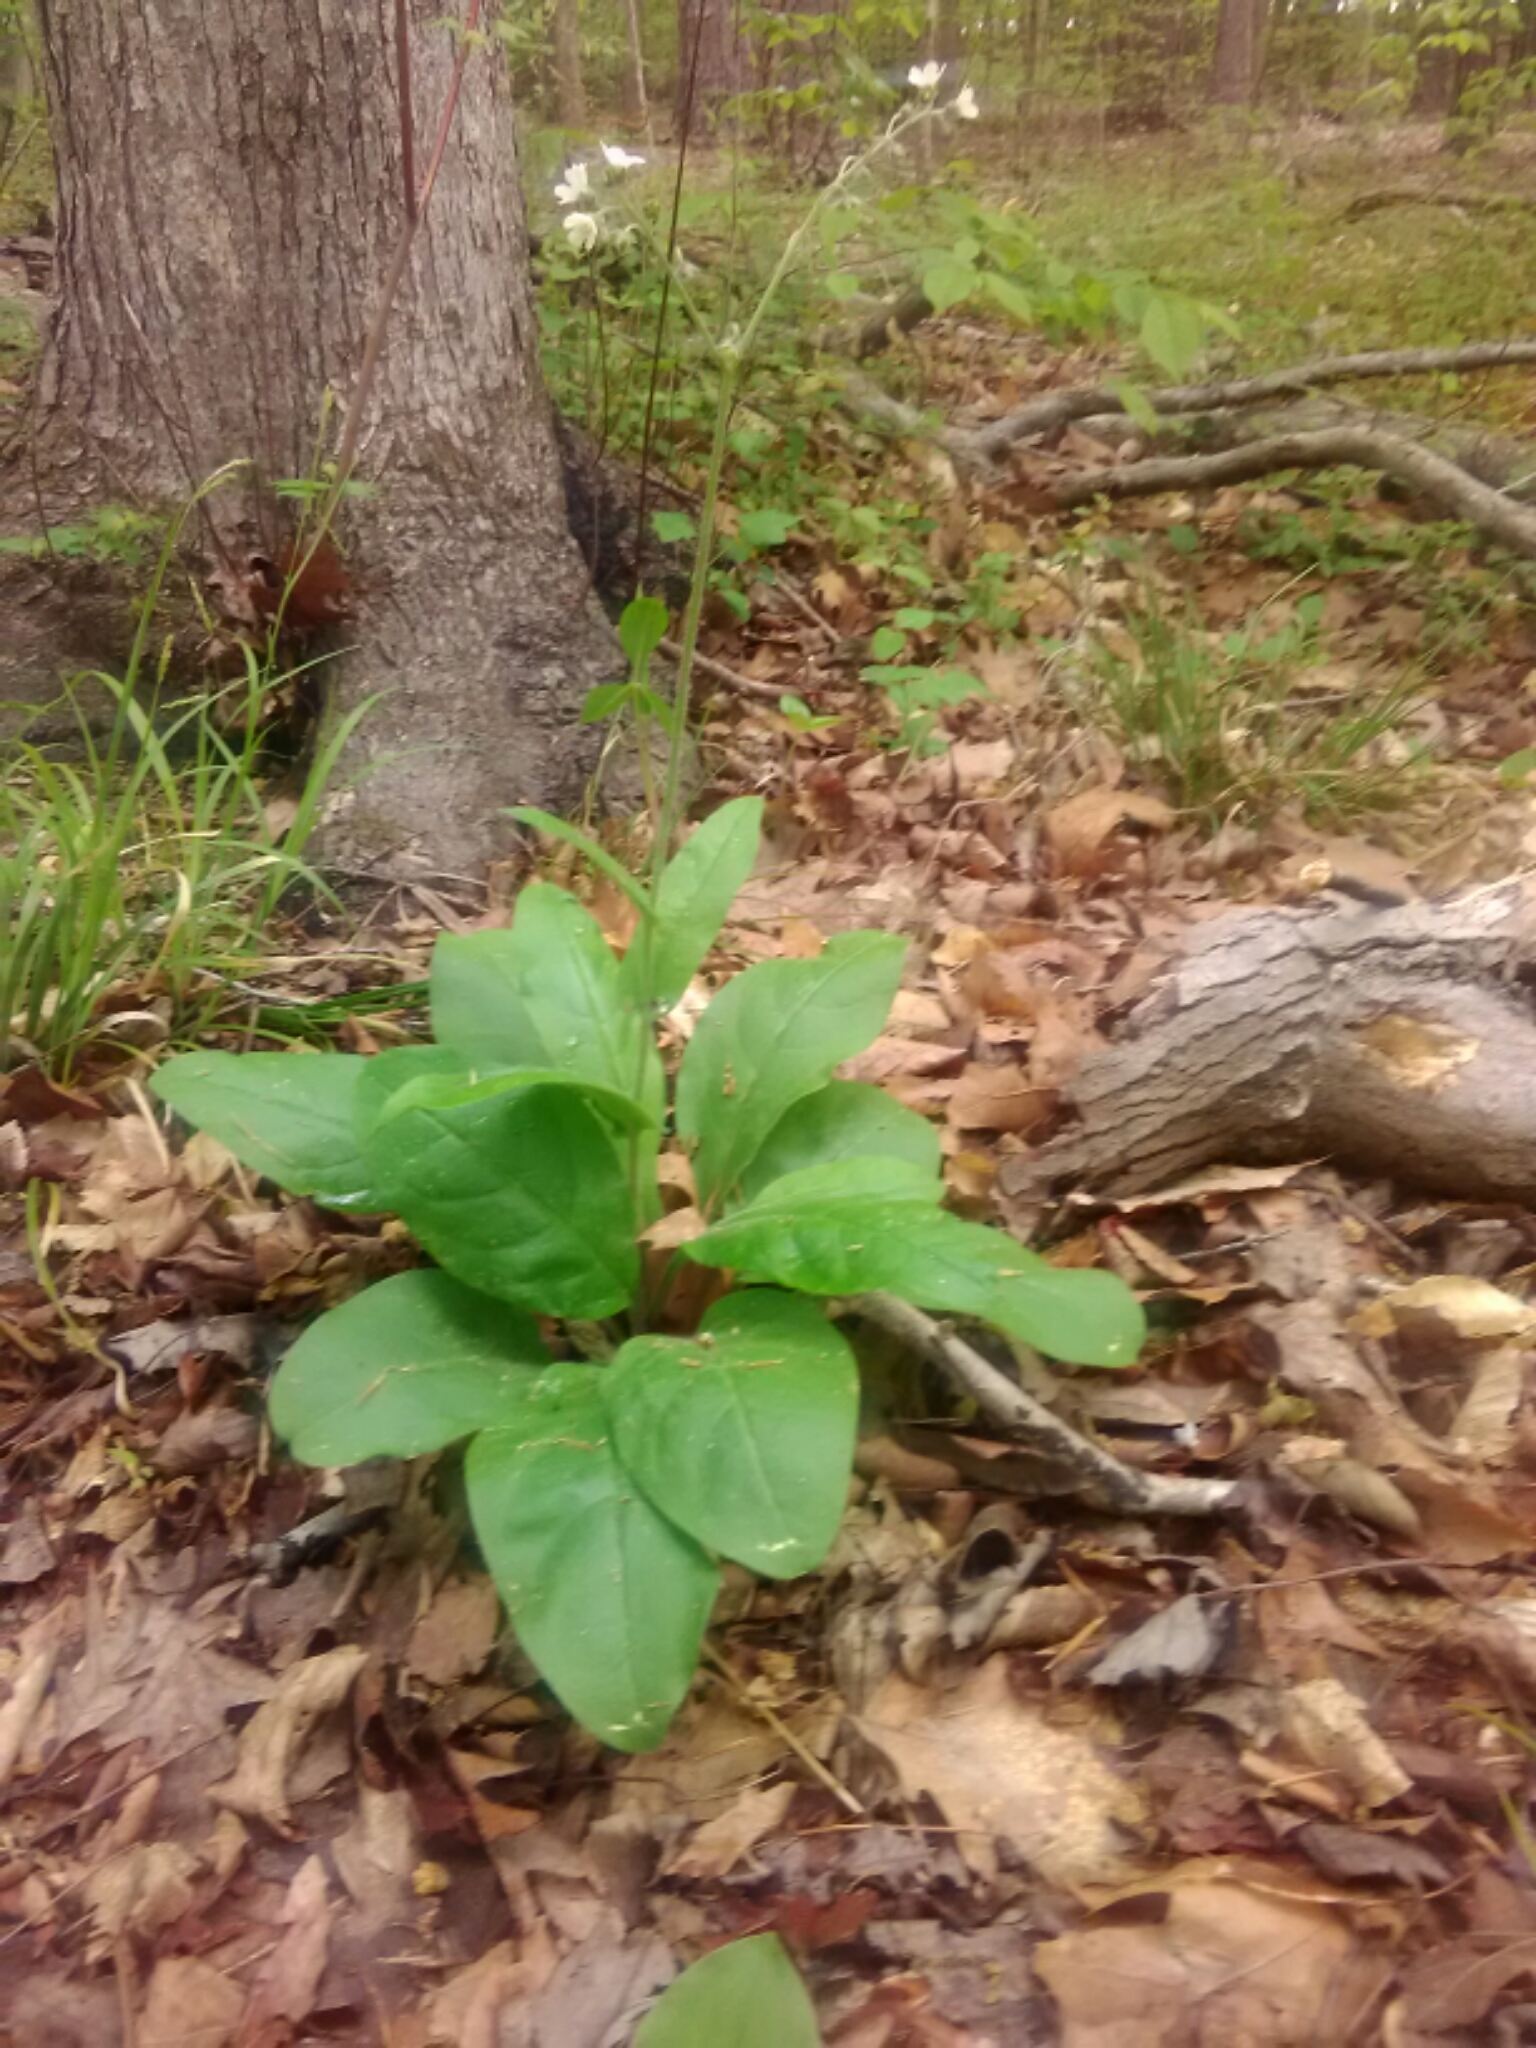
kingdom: Plantae
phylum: Tracheophyta
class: Magnoliopsida
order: Boraginales
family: Boraginaceae
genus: Andersonglossum
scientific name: Andersonglossum virginianum
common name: Wild comfrey
